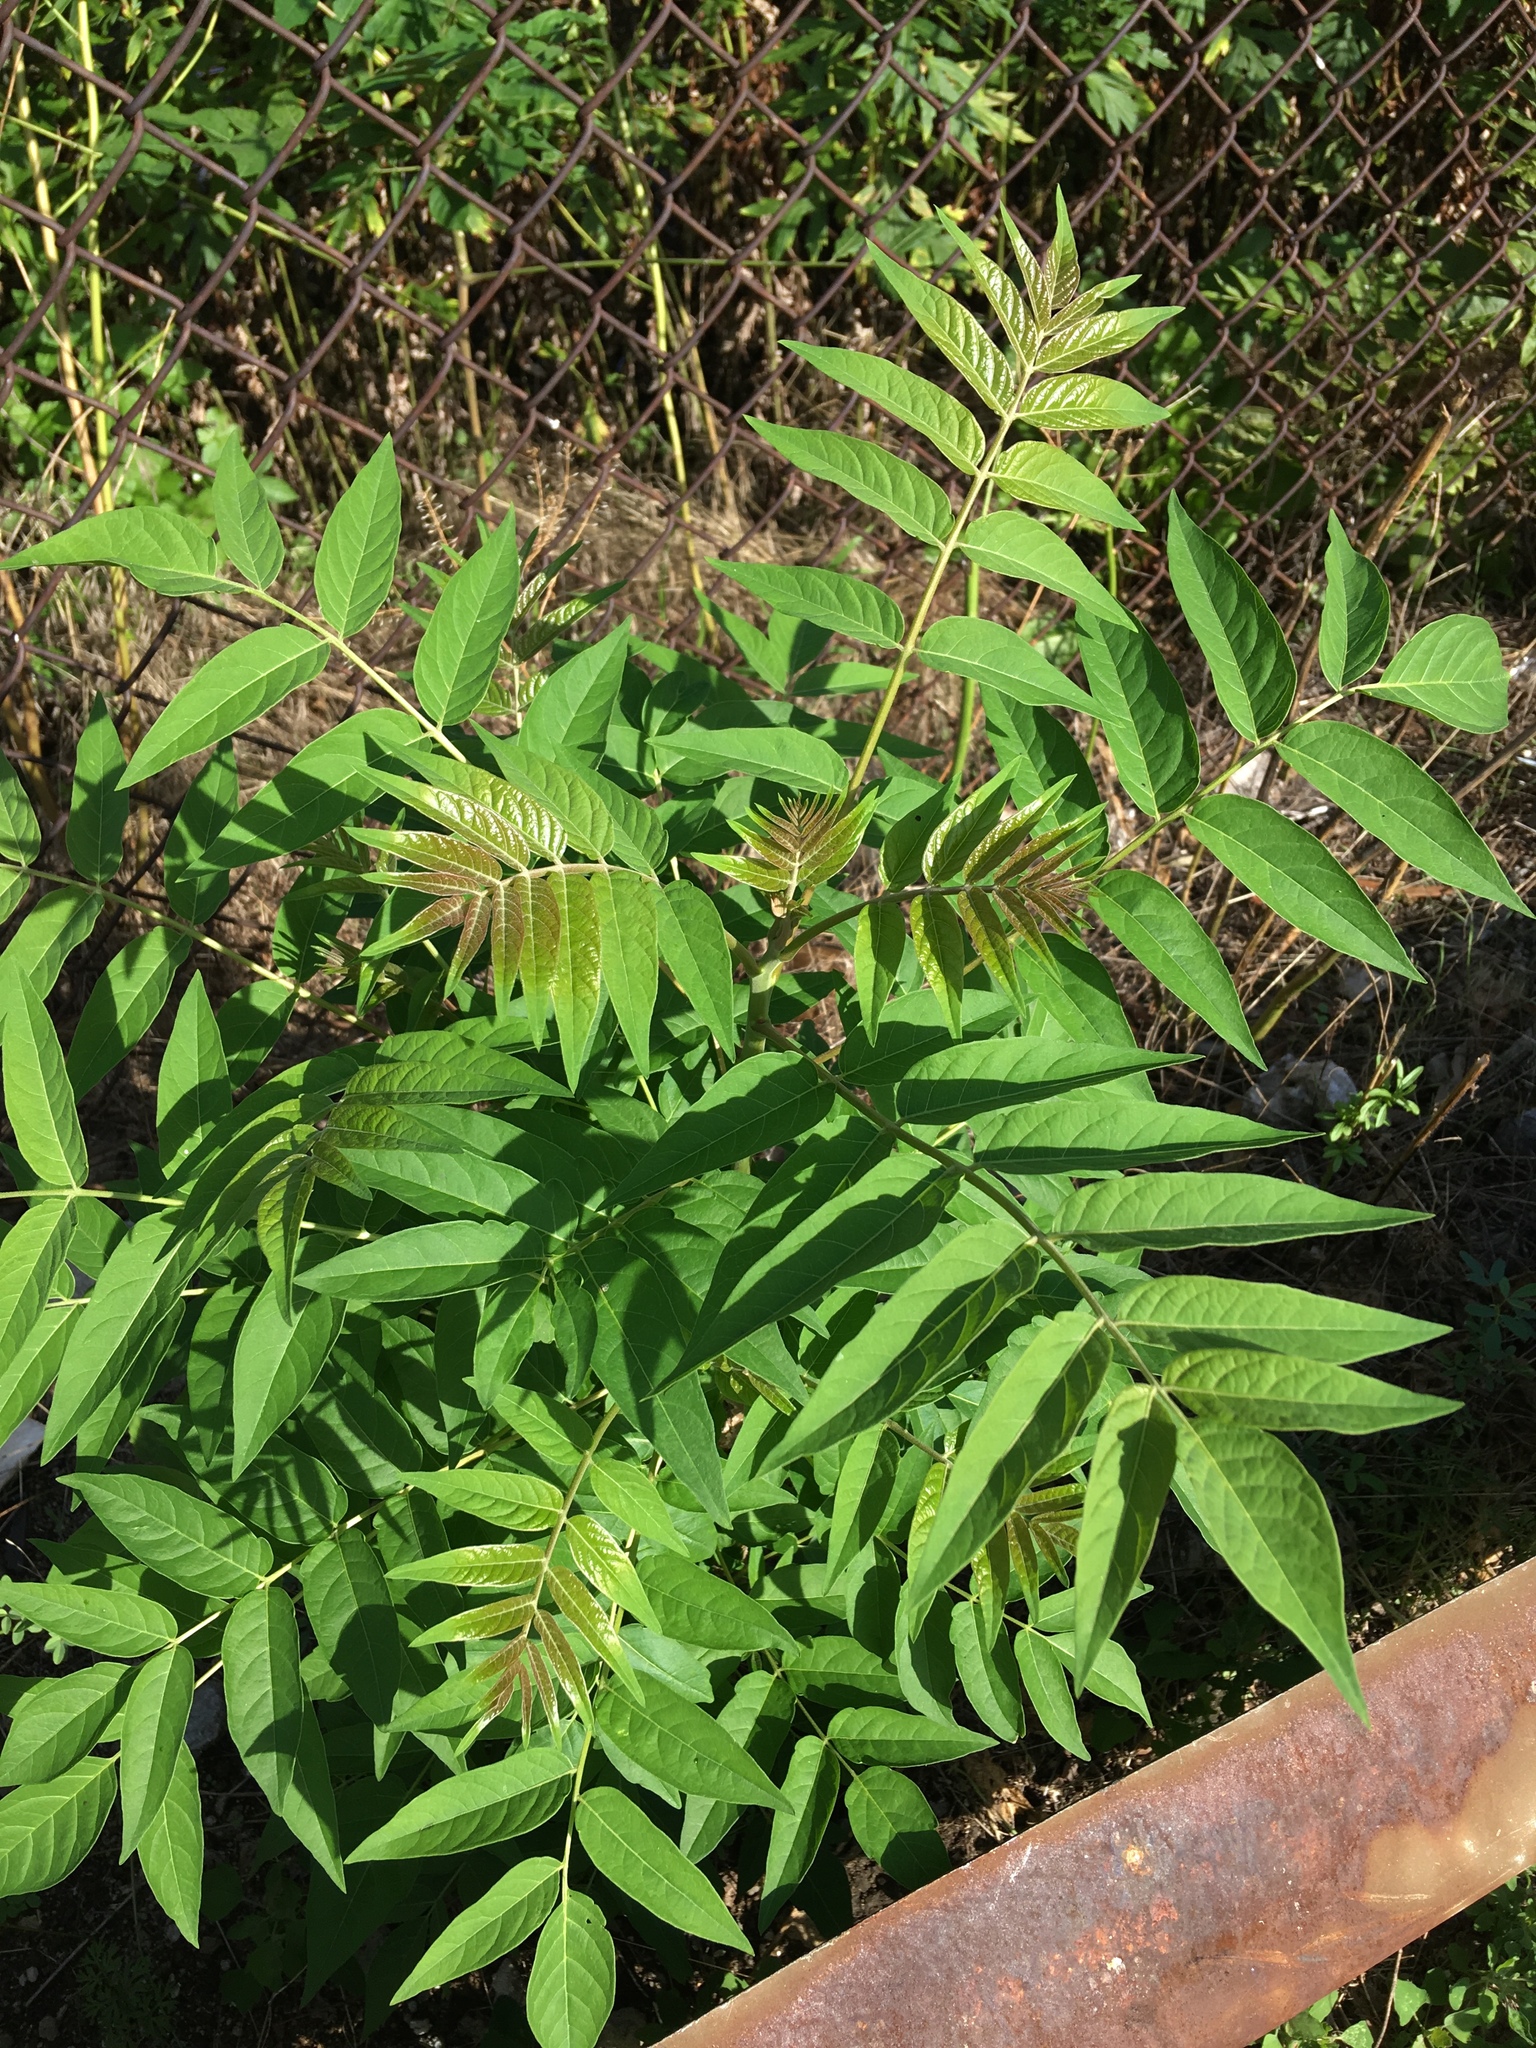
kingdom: Plantae
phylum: Tracheophyta
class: Magnoliopsida
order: Sapindales
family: Simaroubaceae
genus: Ailanthus
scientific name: Ailanthus altissima
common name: Tree-of-heaven
